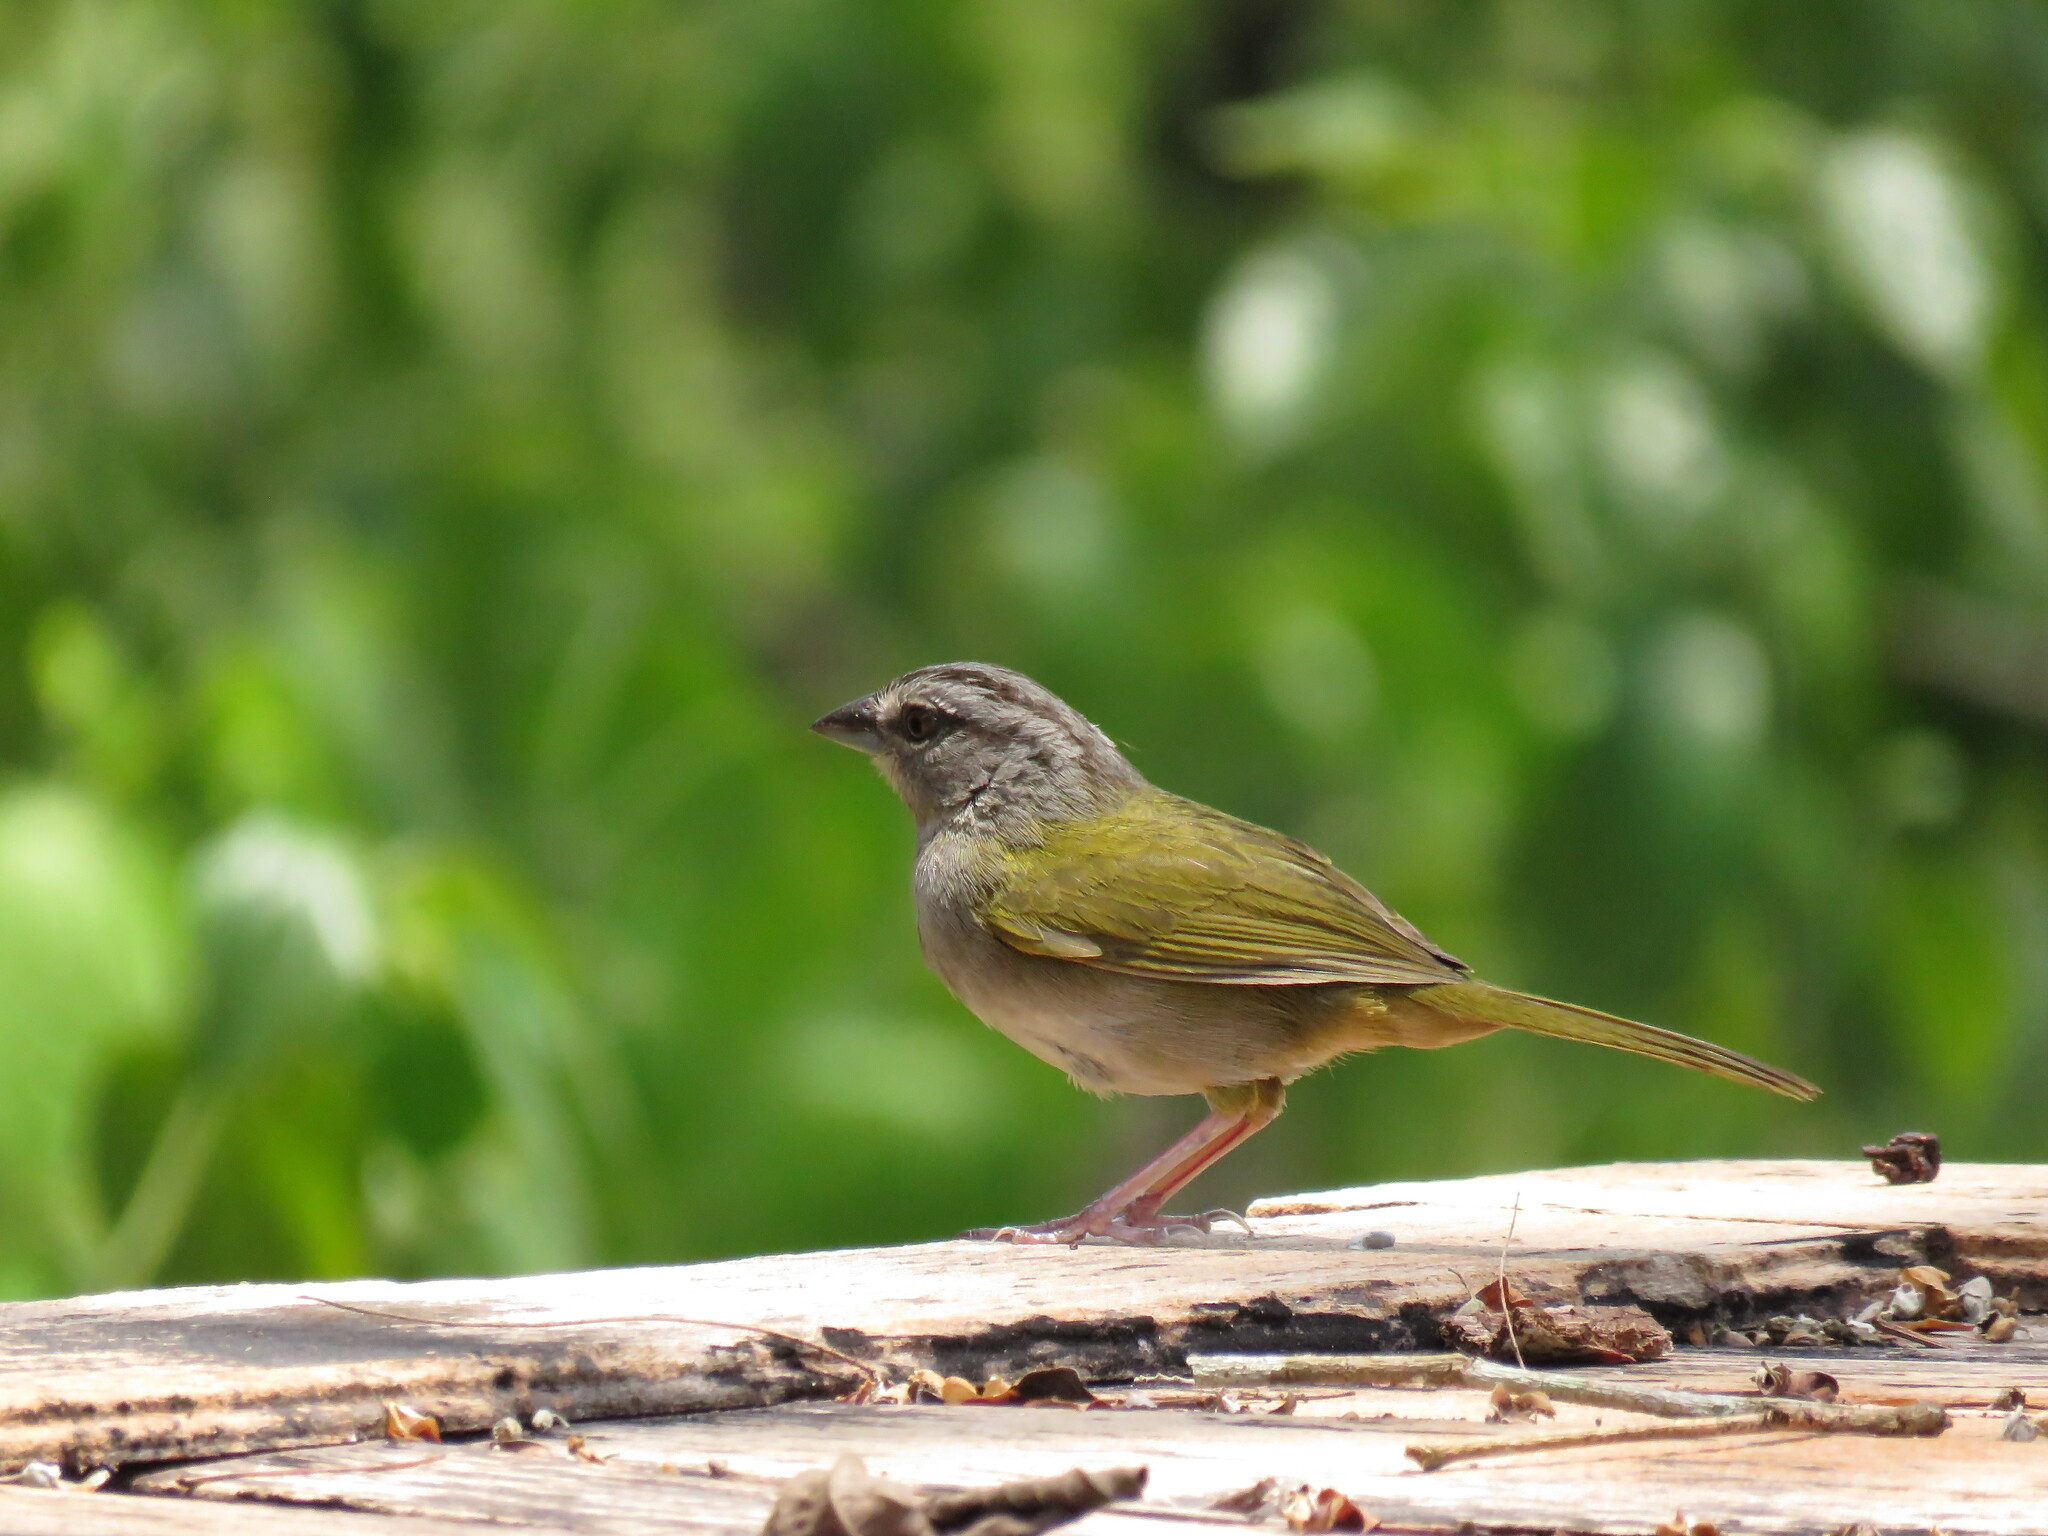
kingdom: Animalia
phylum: Chordata
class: Aves
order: Passeriformes
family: Passerellidae
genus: Arremonops
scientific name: Arremonops chloronotus
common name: Green-backed sparrow
